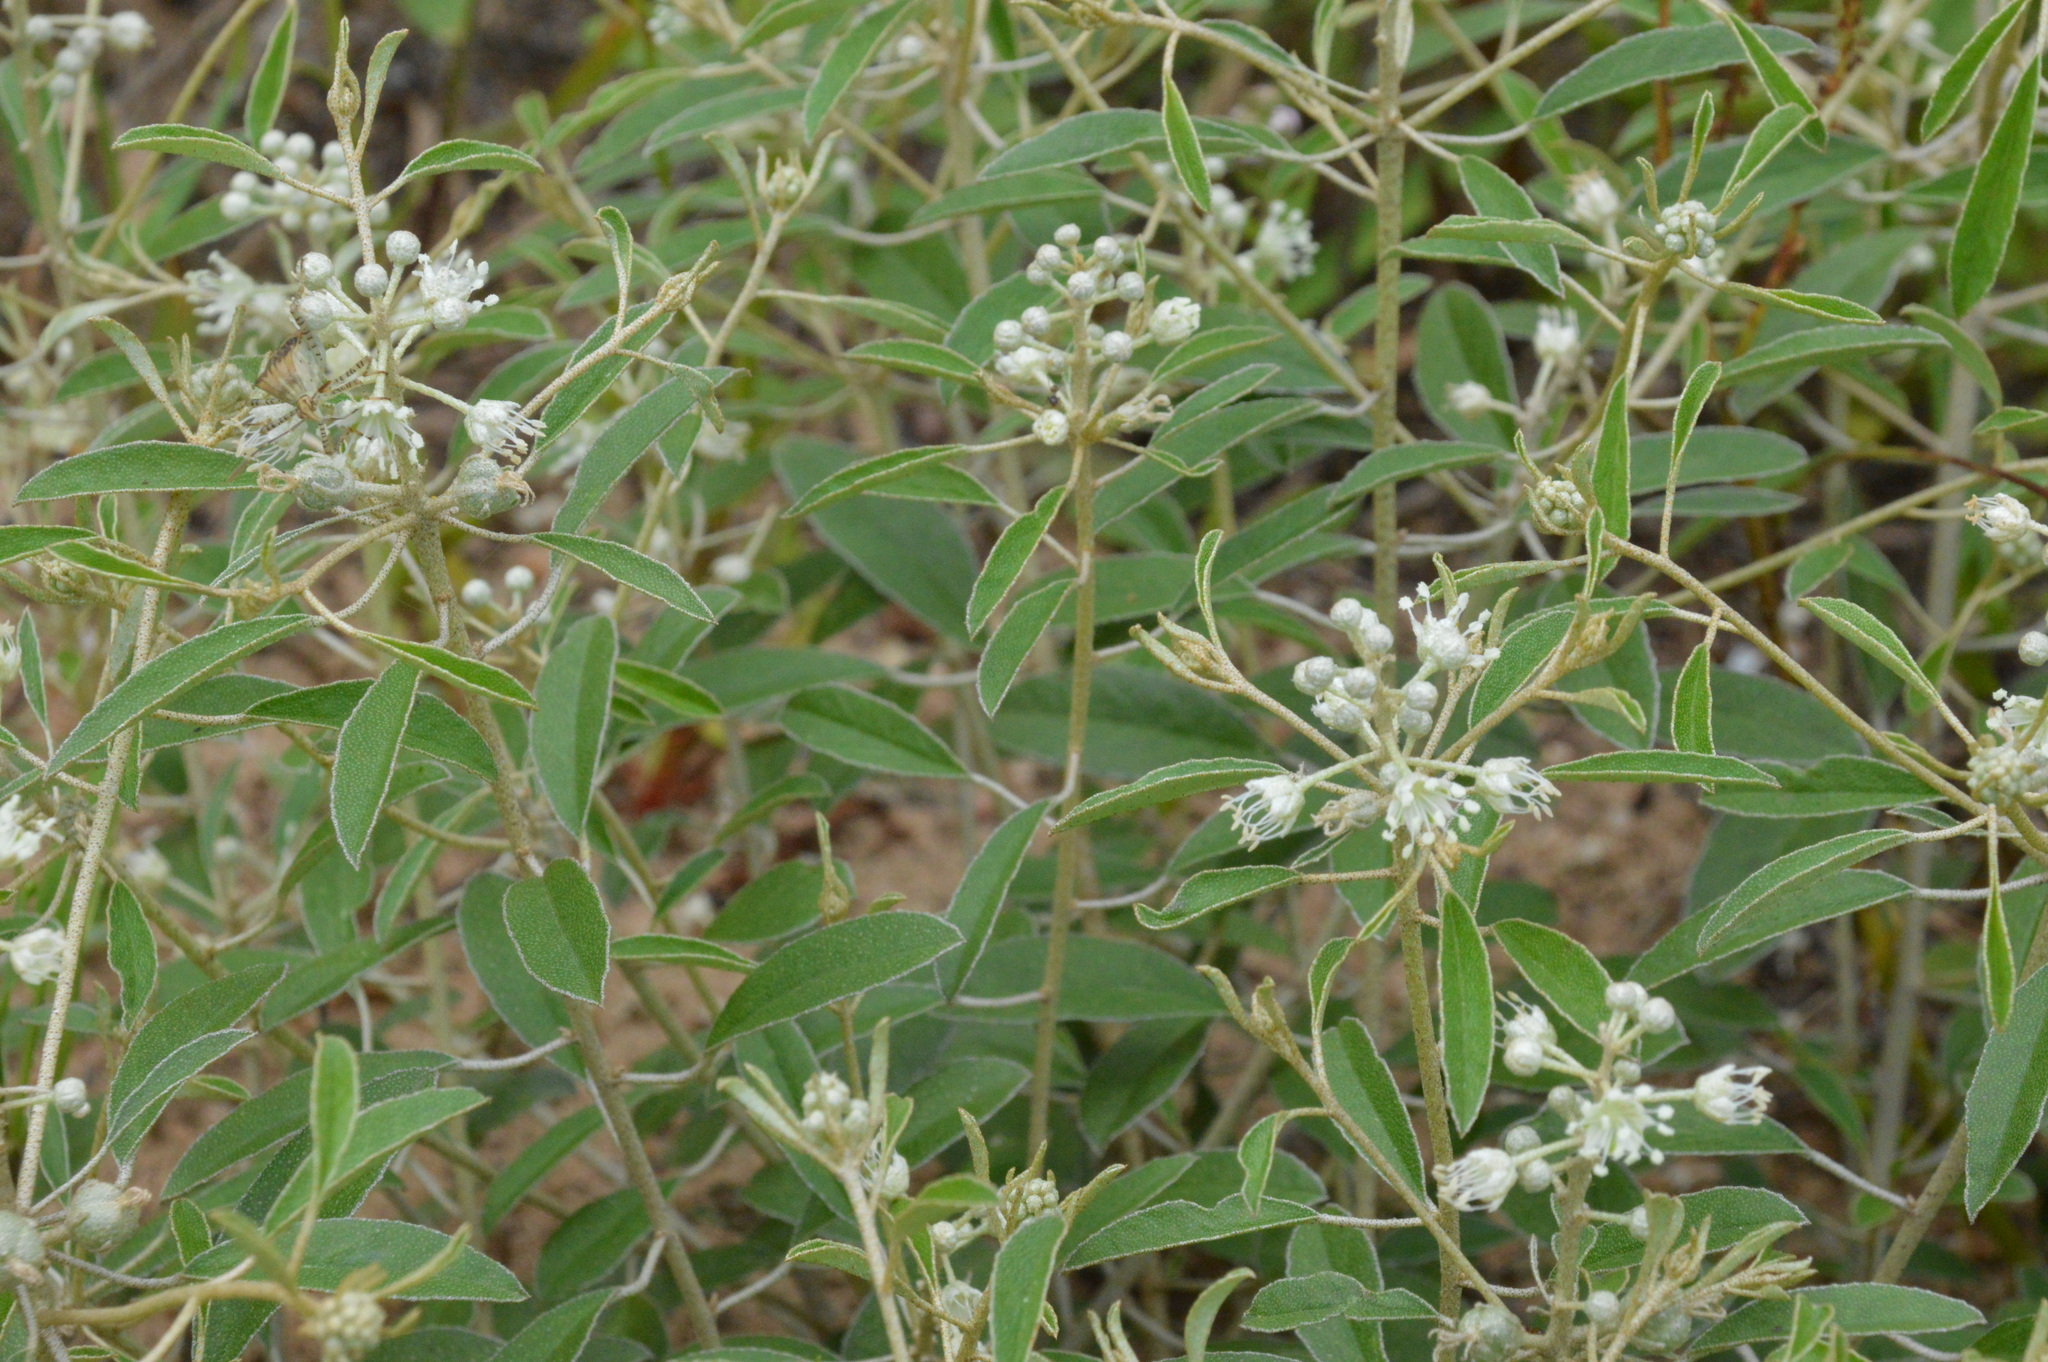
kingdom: Plantae
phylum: Tracheophyta
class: Magnoliopsida
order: Malpighiales
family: Euphorbiaceae
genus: Croton
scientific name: Croton argyranthemus
